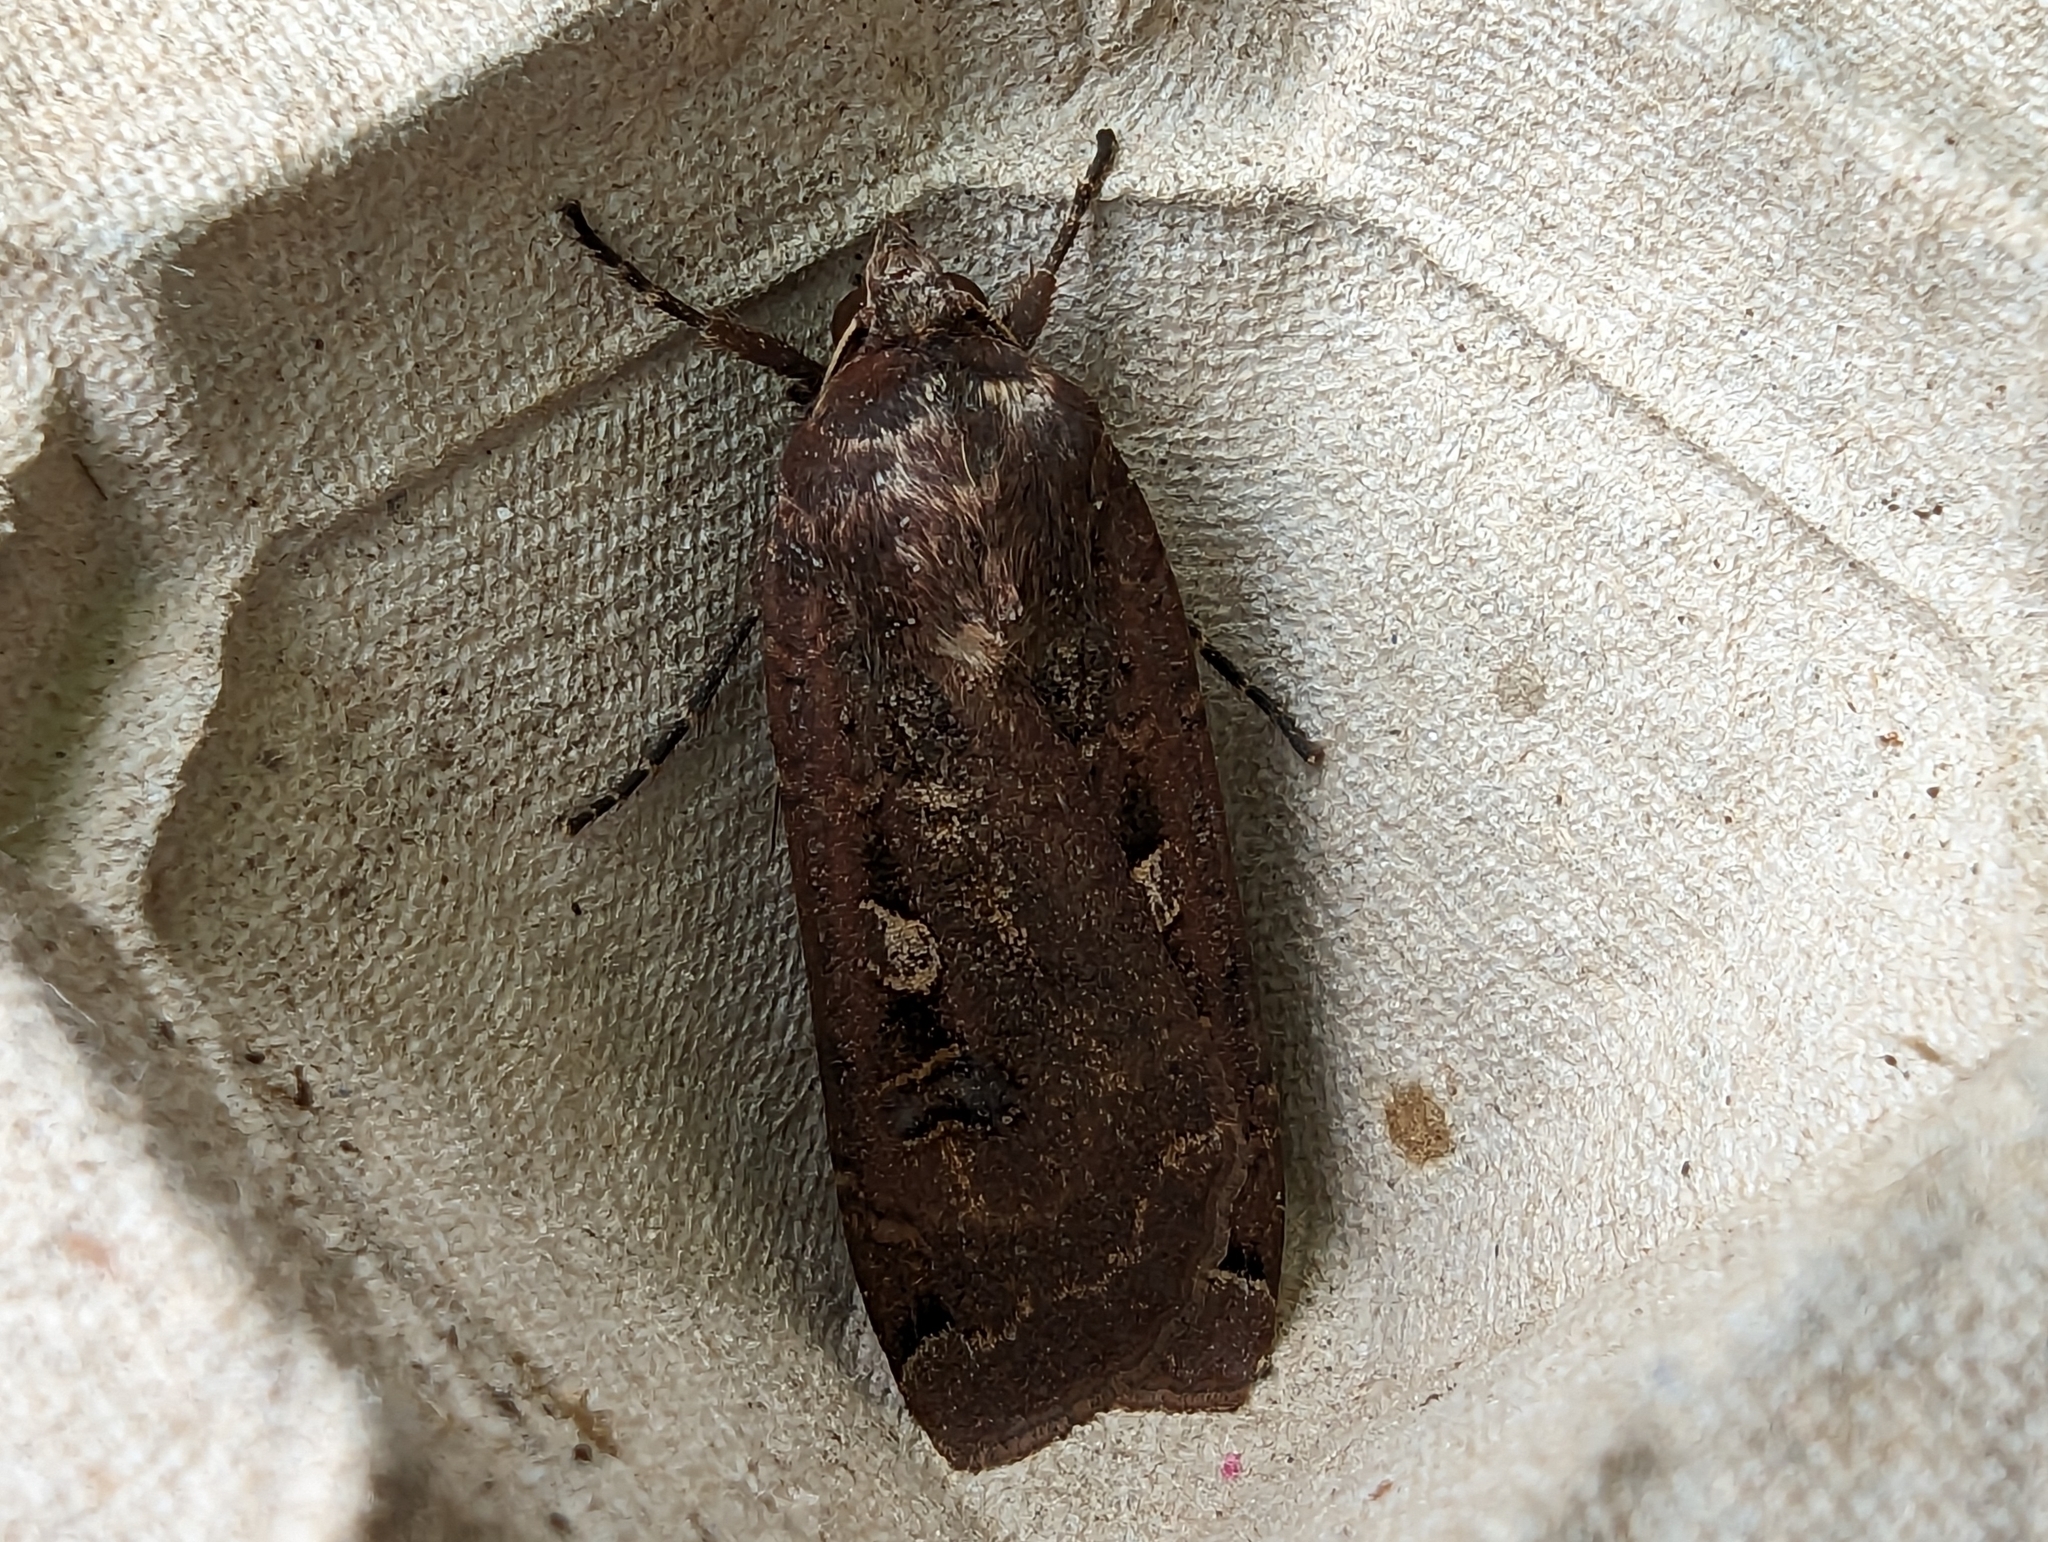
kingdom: Animalia
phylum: Arthropoda
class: Insecta
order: Lepidoptera
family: Noctuidae
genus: Noctua
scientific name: Noctua pronuba
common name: Large yellow underwing
